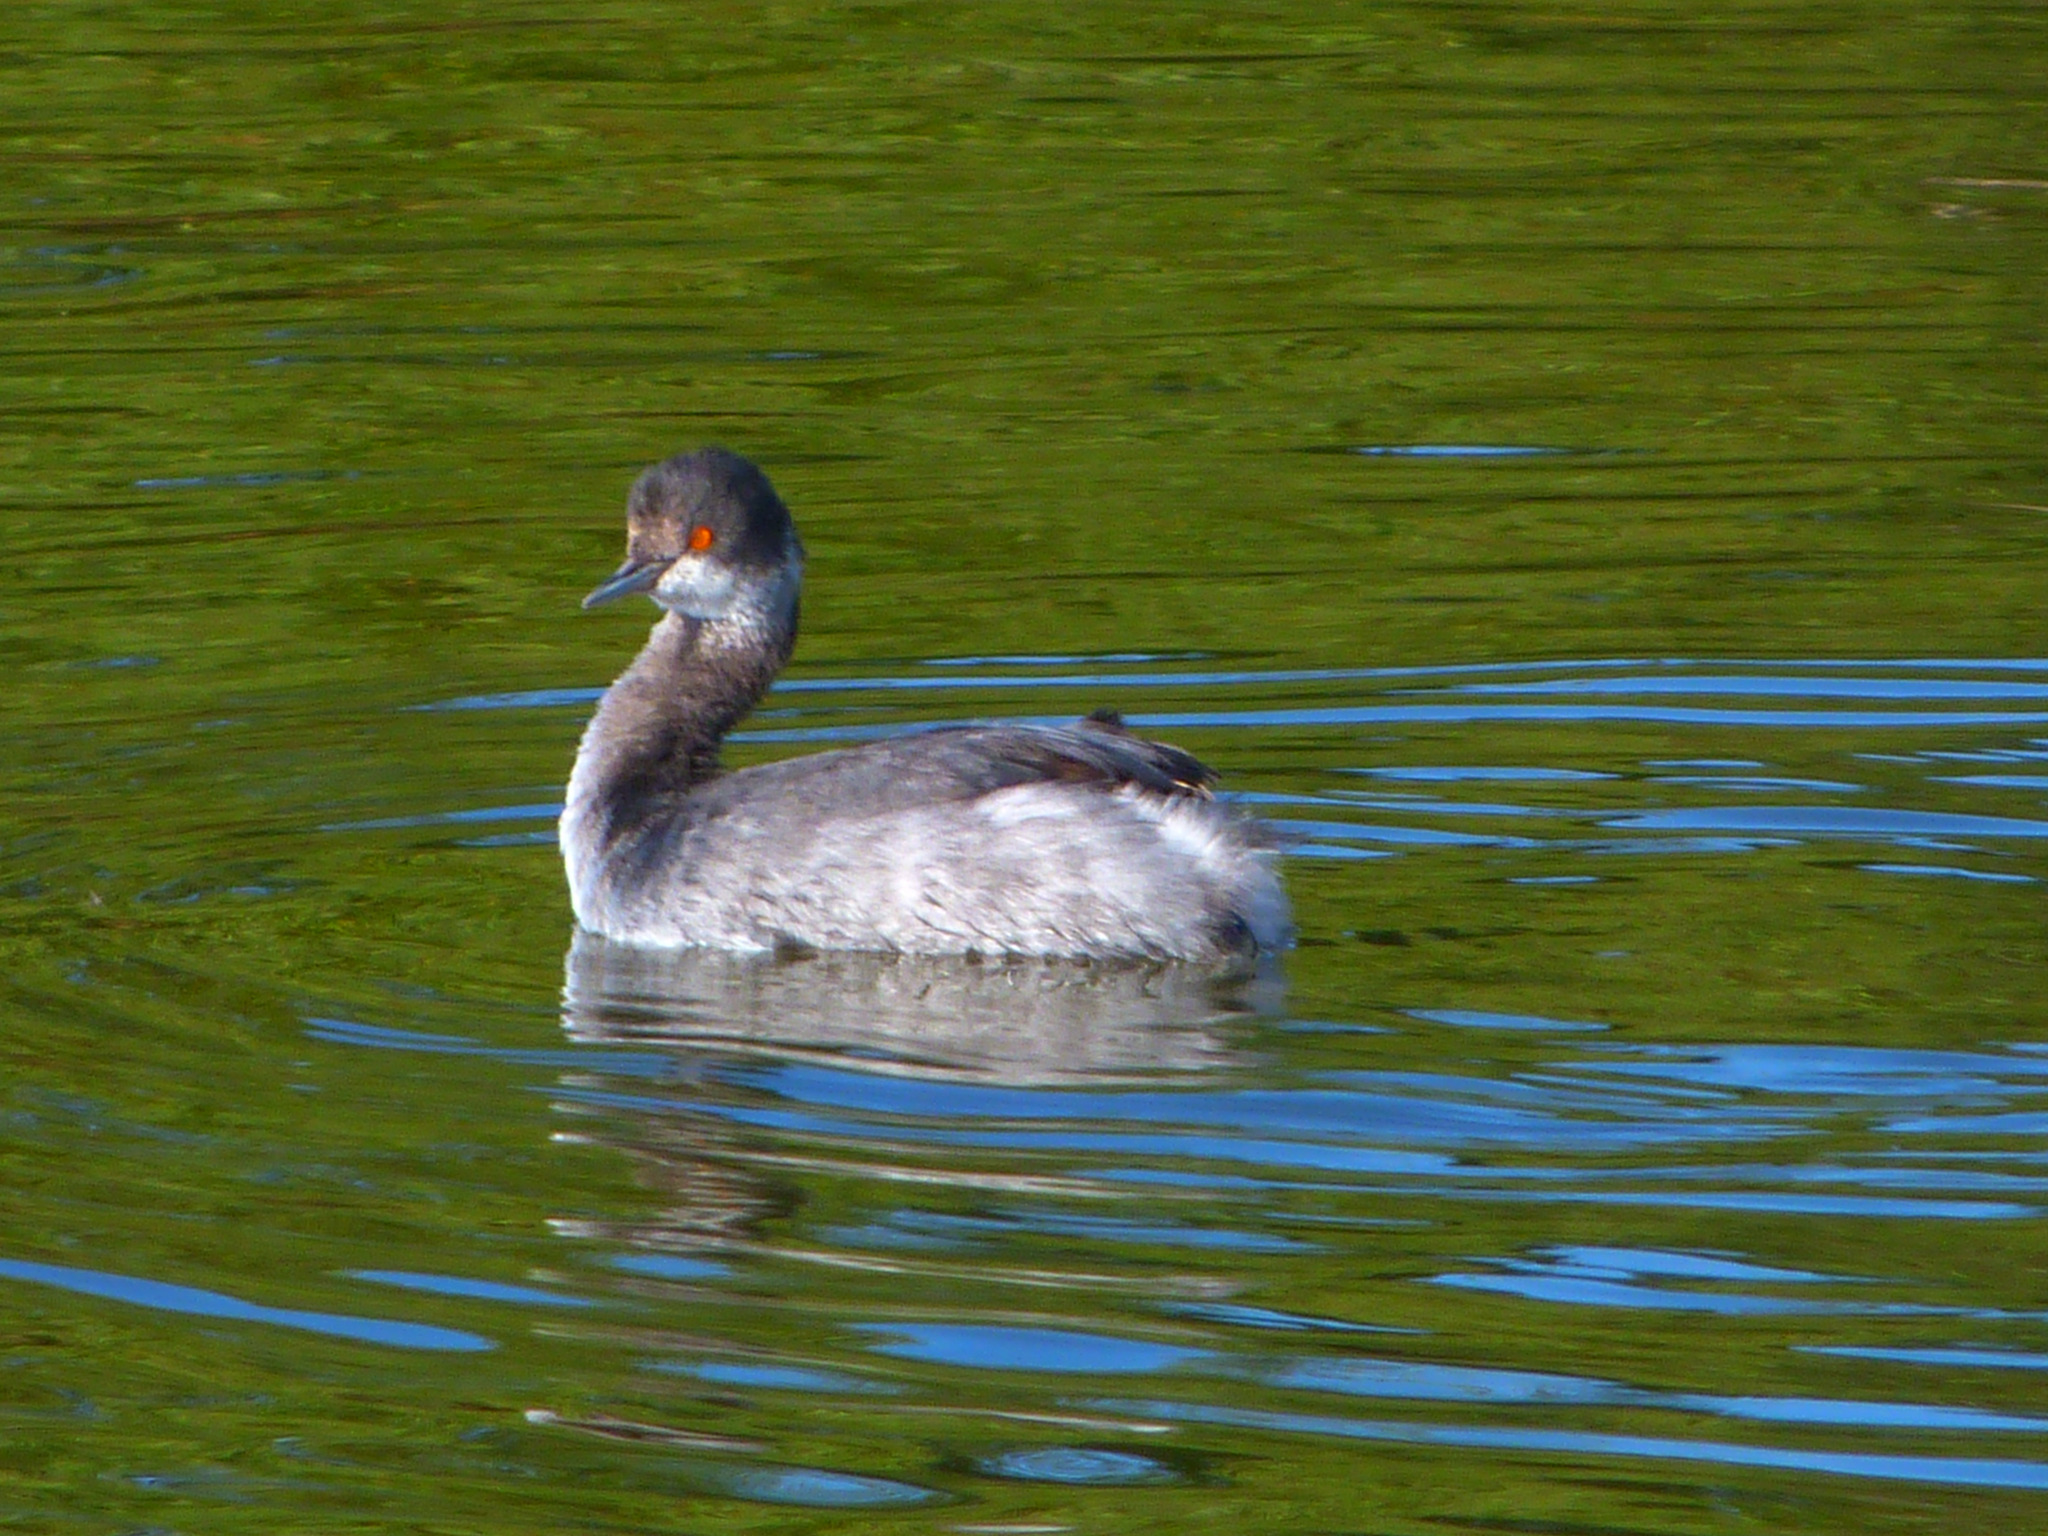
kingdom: Animalia
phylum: Chordata
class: Aves
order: Podicipediformes
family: Podicipedidae
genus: Podiceps
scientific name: Podiceps nigricollis
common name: Black-necked grebe
